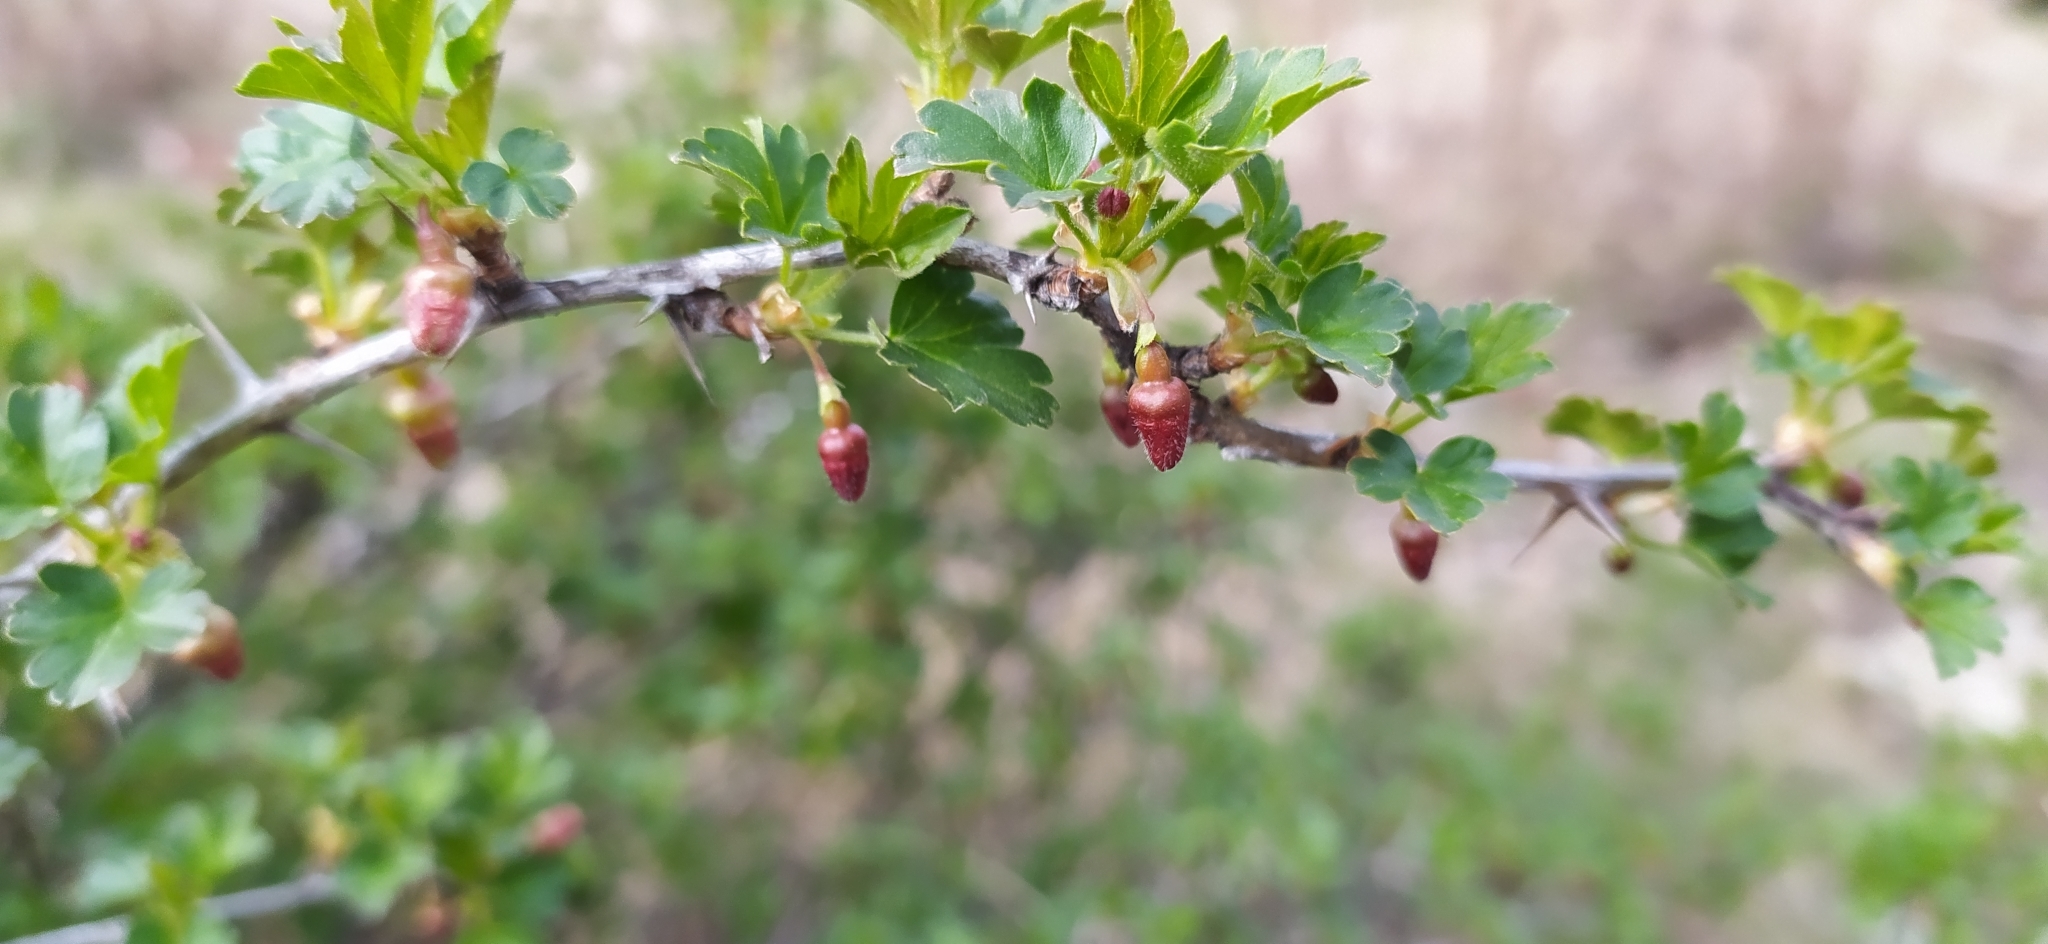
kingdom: Plantae
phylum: Tracheophyta
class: Magnoliopsida
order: Saxifragales
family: Grossulariaceae
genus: Ribes
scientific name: Ribes uva-crispa
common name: Gooseberry
